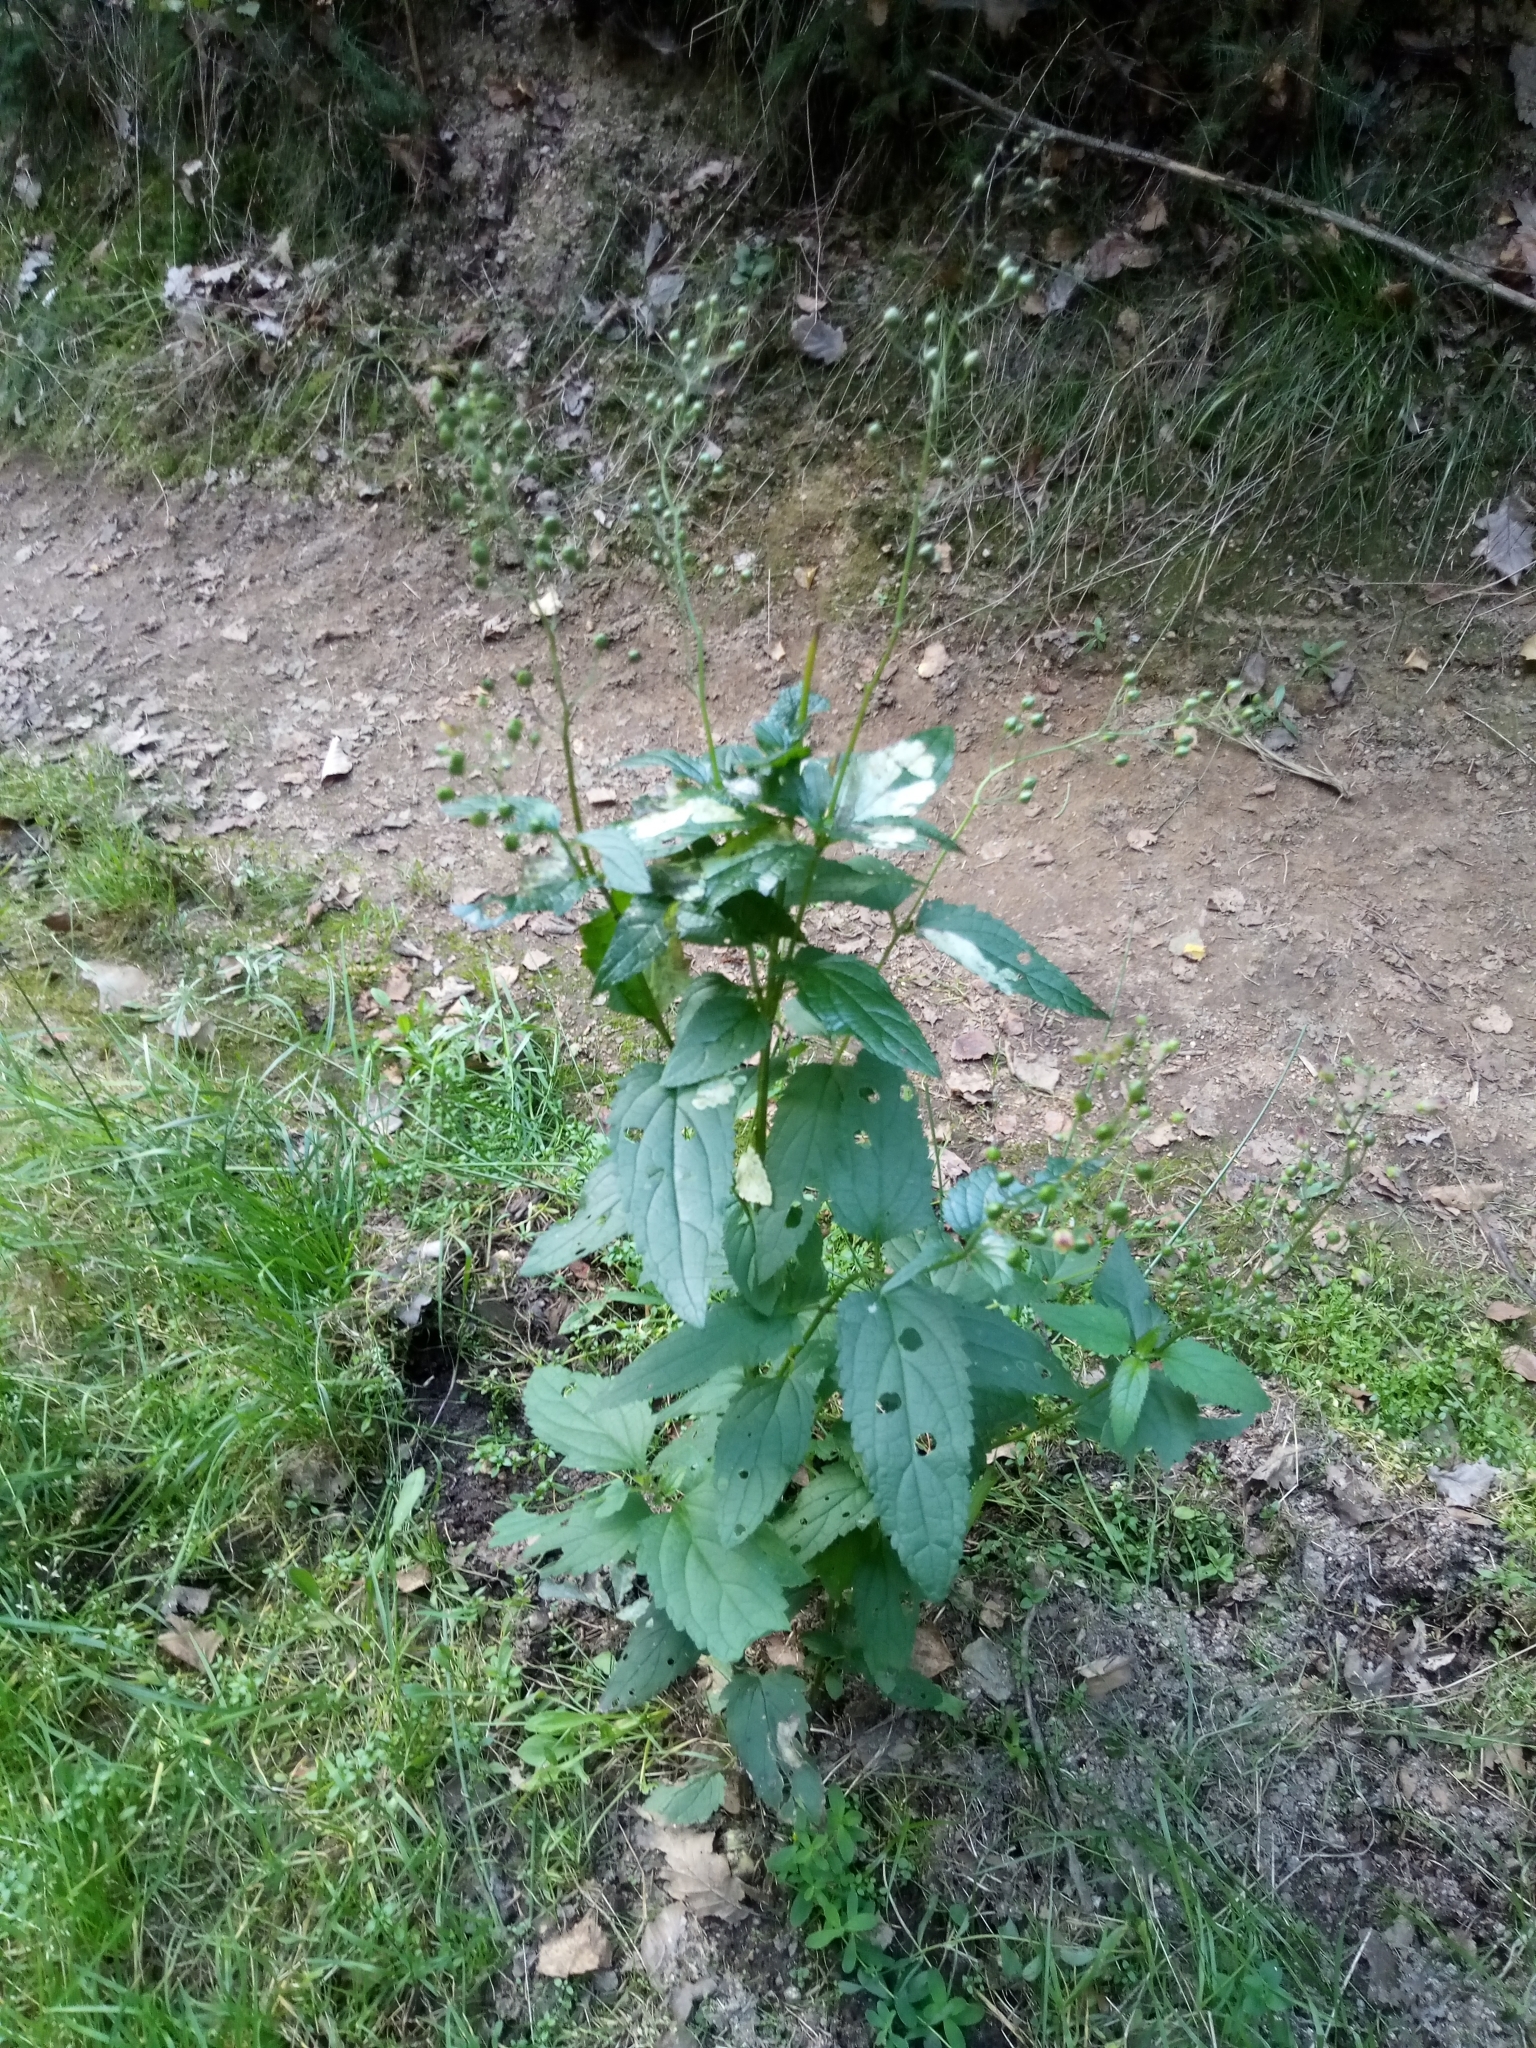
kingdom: Plantae
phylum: Tracheophyta
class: Magnoliopsida
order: Lamiales
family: Scrophulariaceae
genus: Scrophularia
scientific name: Scrophularia nodosa
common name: Common figwort
